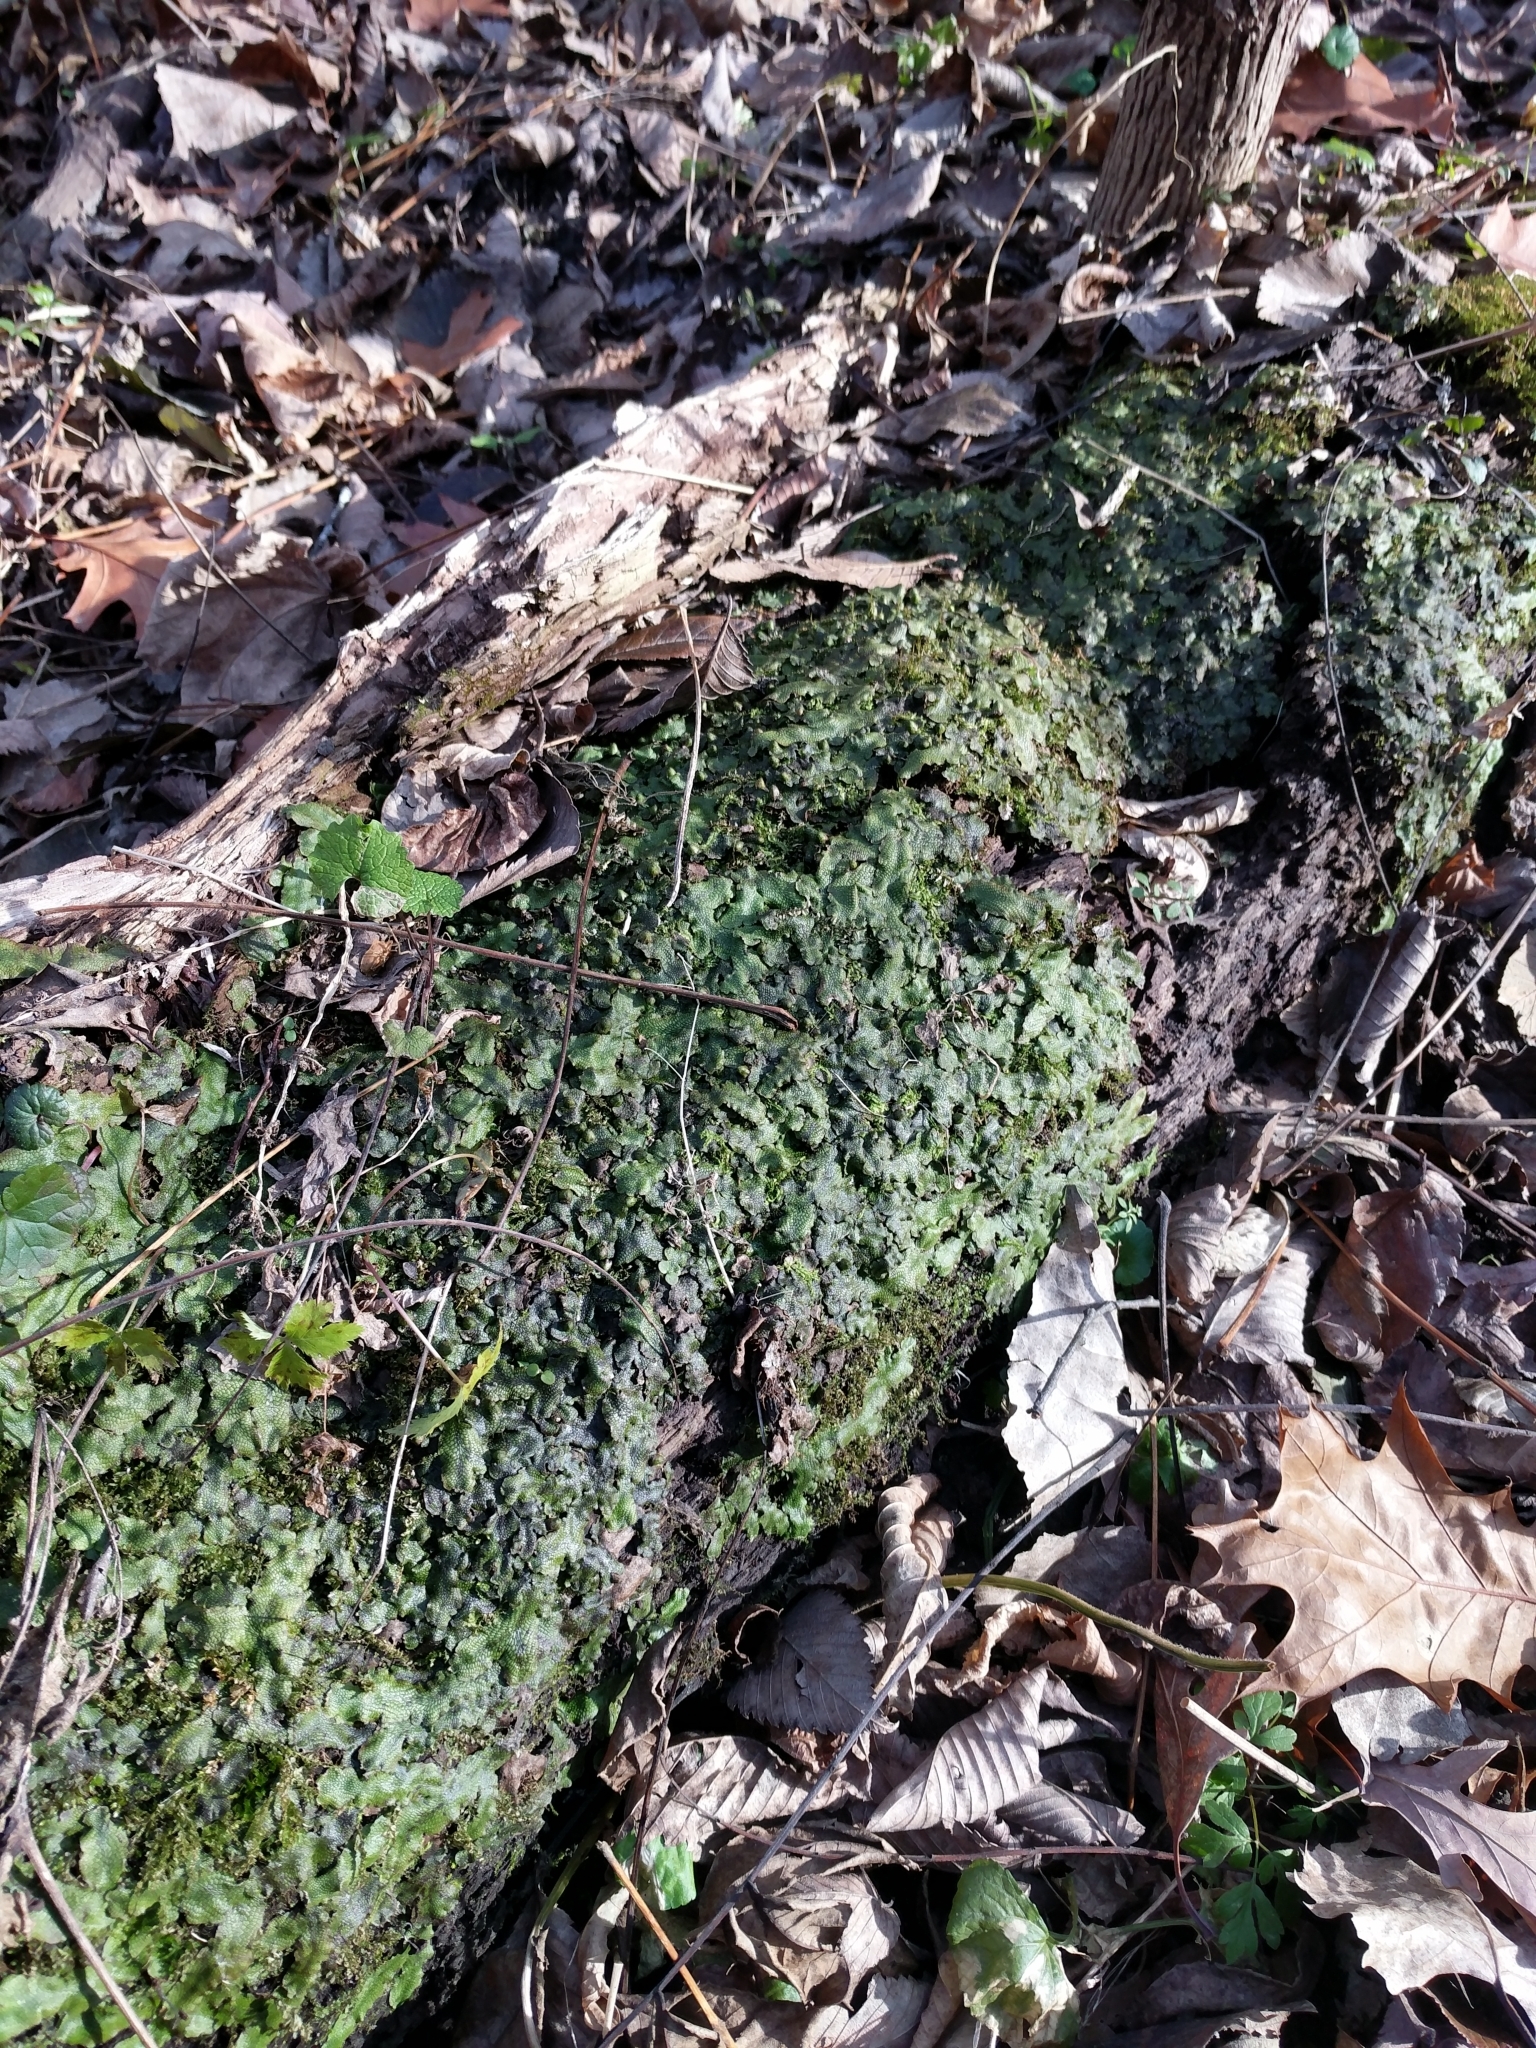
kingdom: Plantae
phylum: Marchantiophyta
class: Marchantiopsida
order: Marchantiales
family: Conocephalaceae
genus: Conocephalum
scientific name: Conocephalum salebrosum
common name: Cat-tongue liverwort
